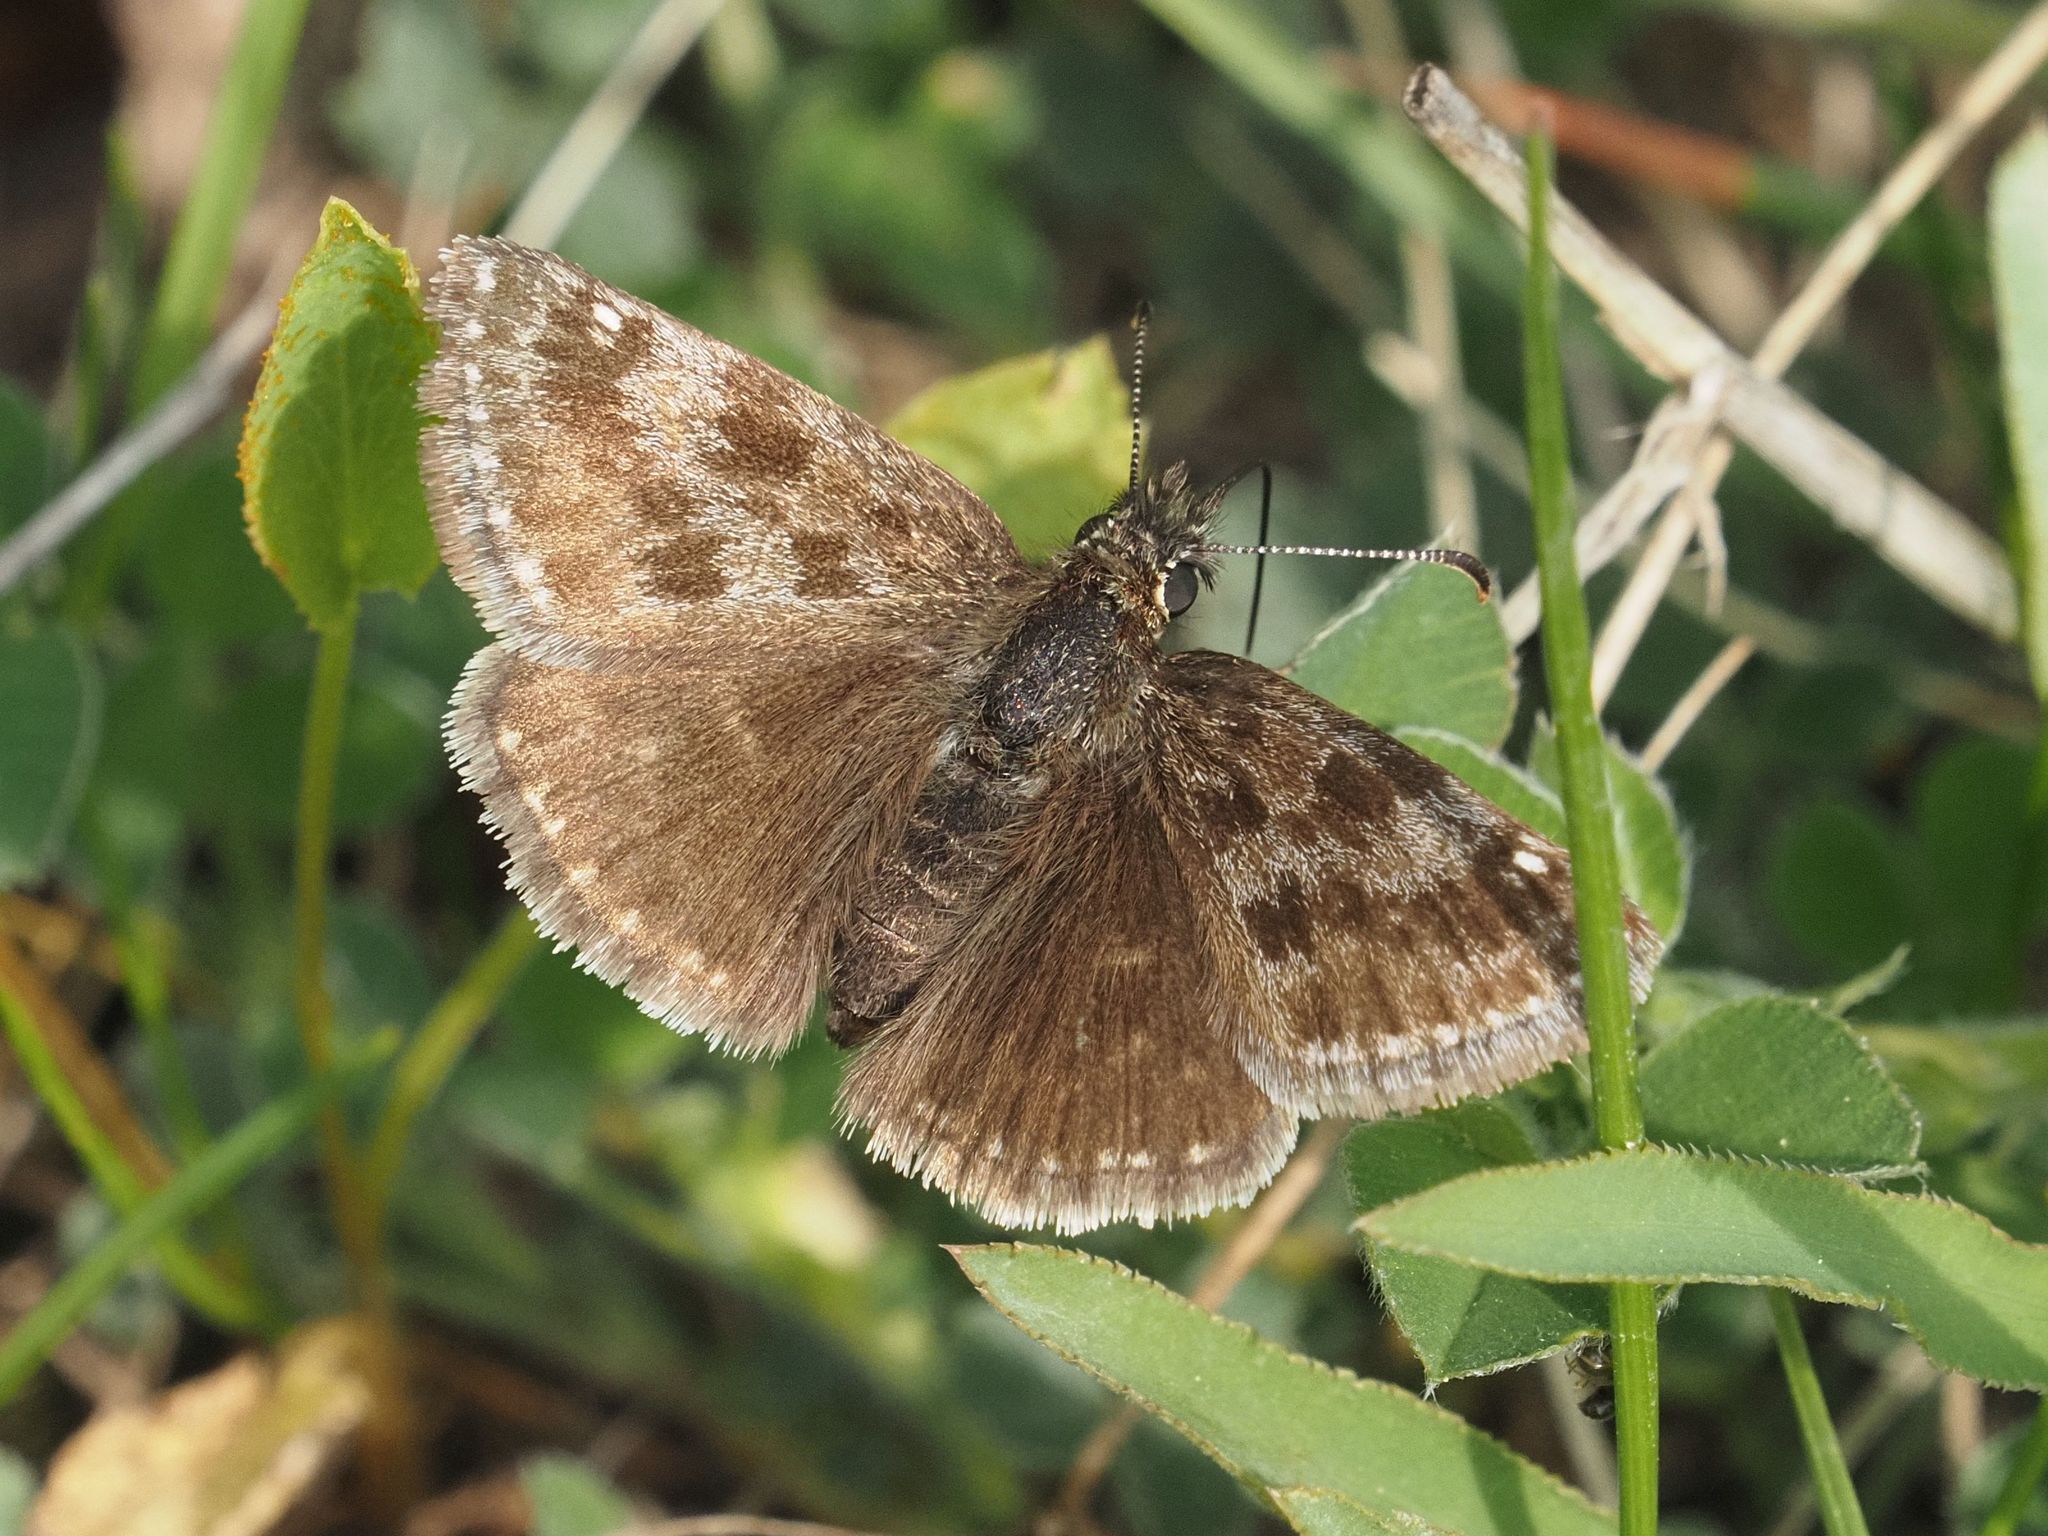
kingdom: Animalia
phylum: Arthropoda
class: Insecta
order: Lepidoptera
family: Hesperiidae
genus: Erynnis
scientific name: Erynnis tages
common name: Dingy skipper
